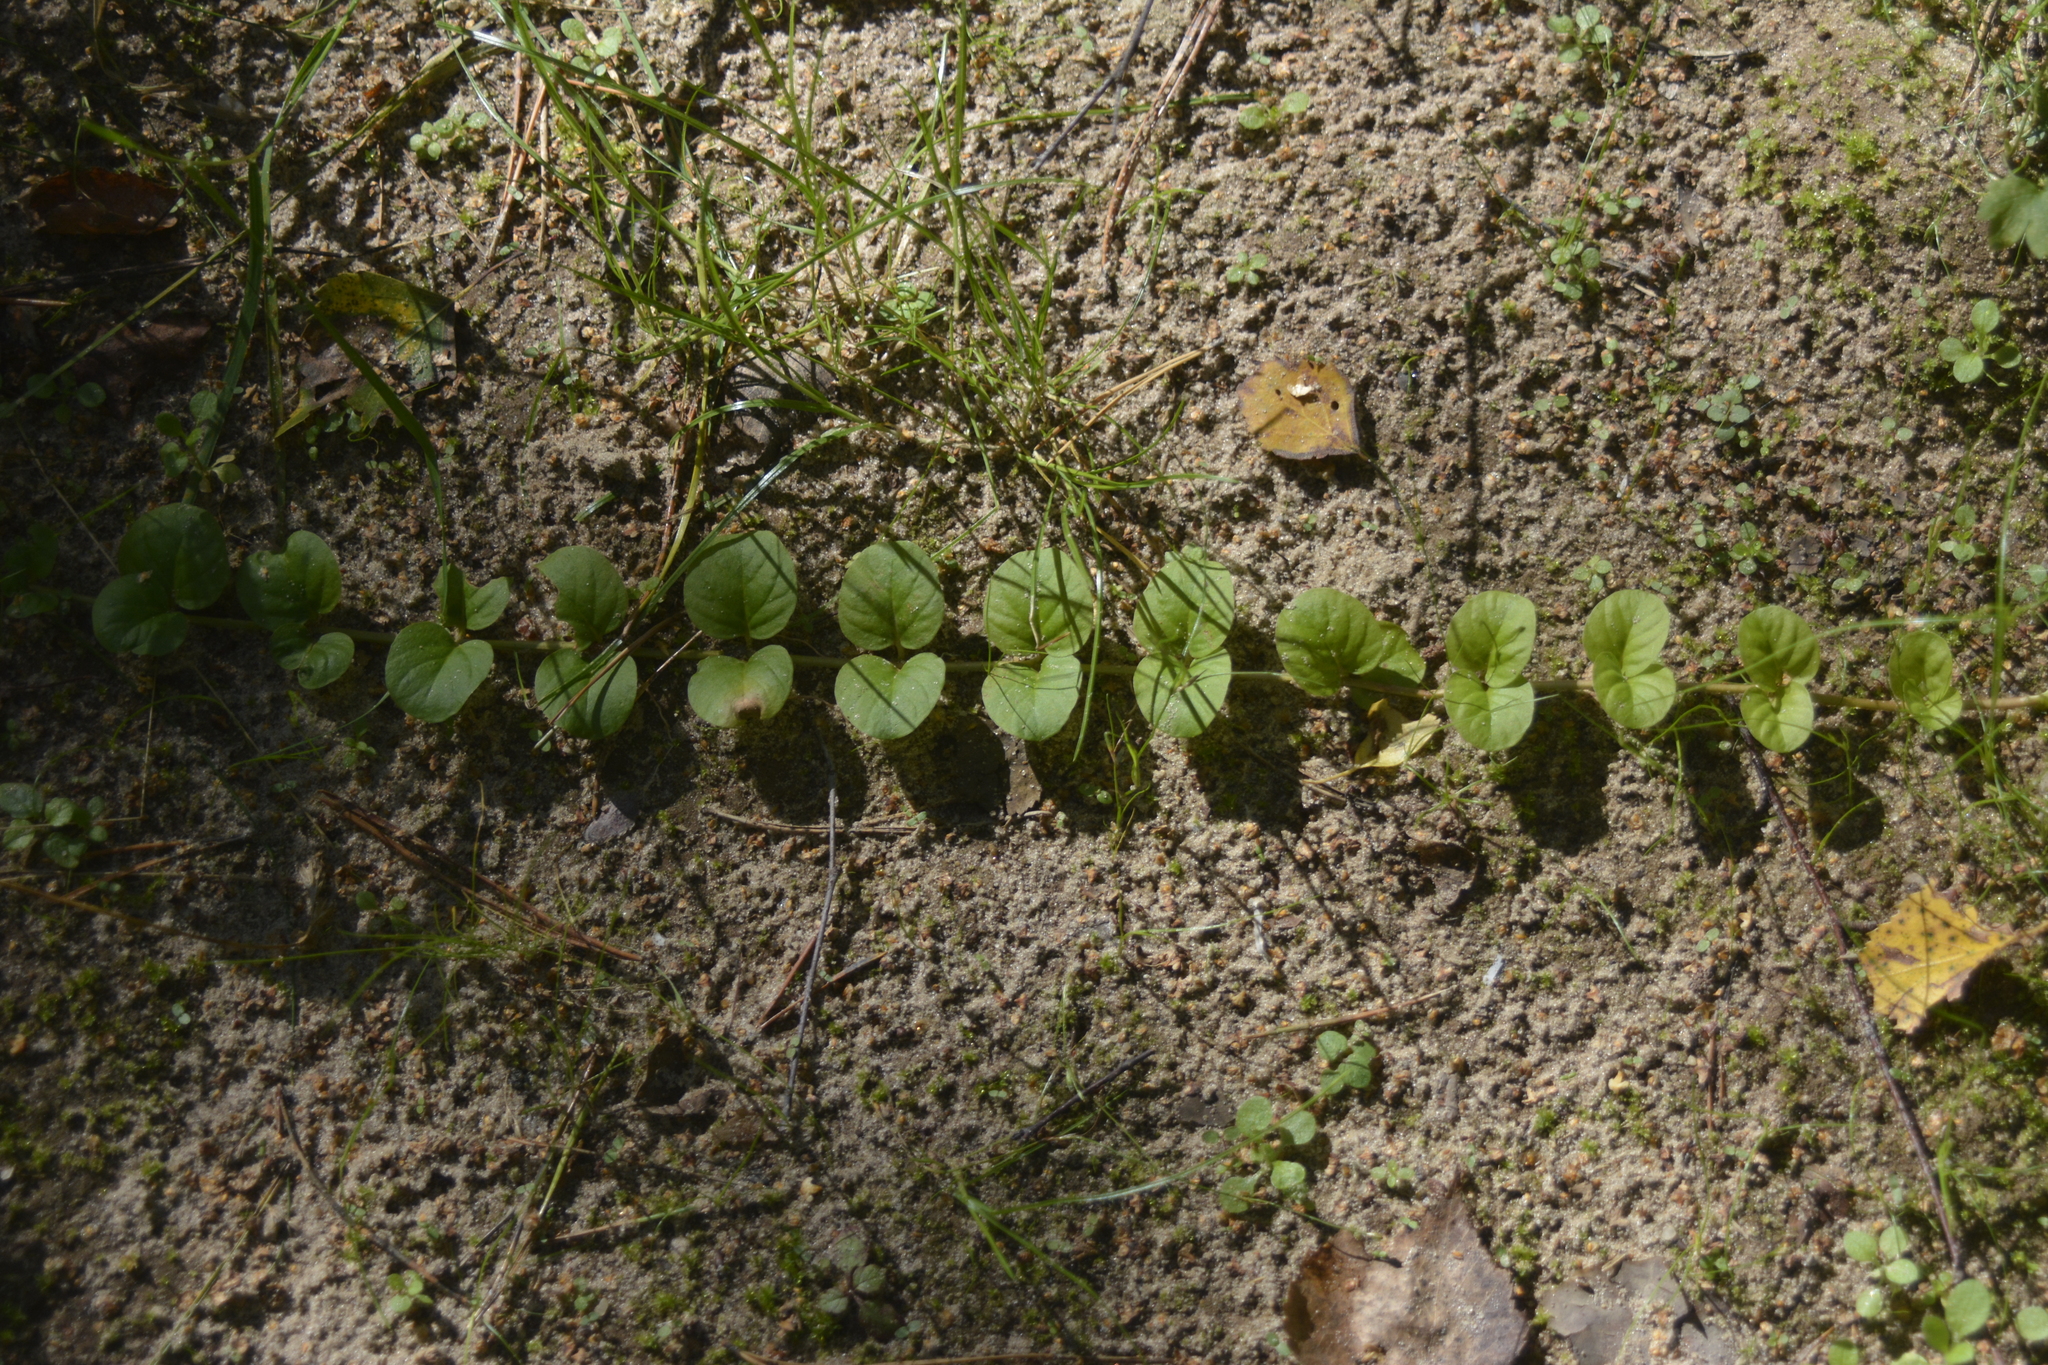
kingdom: Plantae
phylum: Tracheophyta
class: Magnoliopsida
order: Ericales
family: Primulaceae
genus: Lysimachia
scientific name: Lysimachia nummularia
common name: Moneywort
